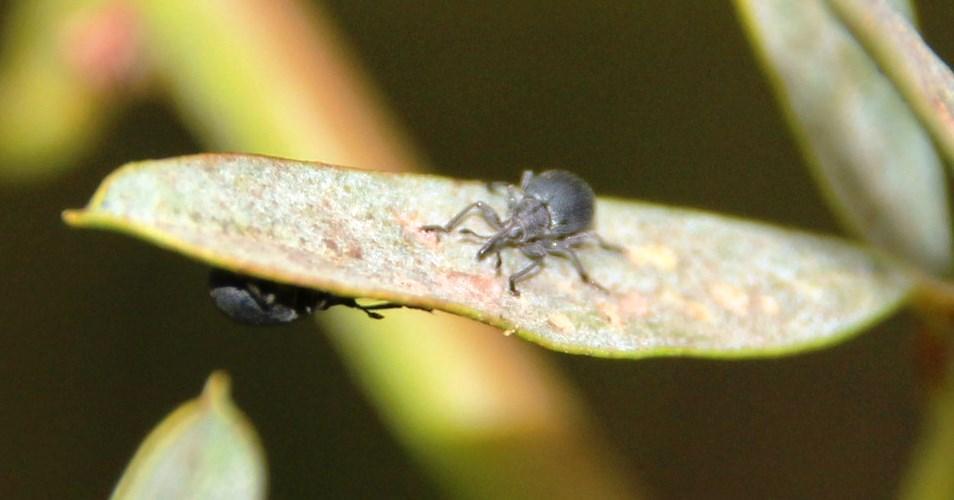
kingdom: Animalia
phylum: Arthropoda
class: Insecta
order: Coleoptera
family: Brentidae
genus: Trichapion
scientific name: Trichapion
